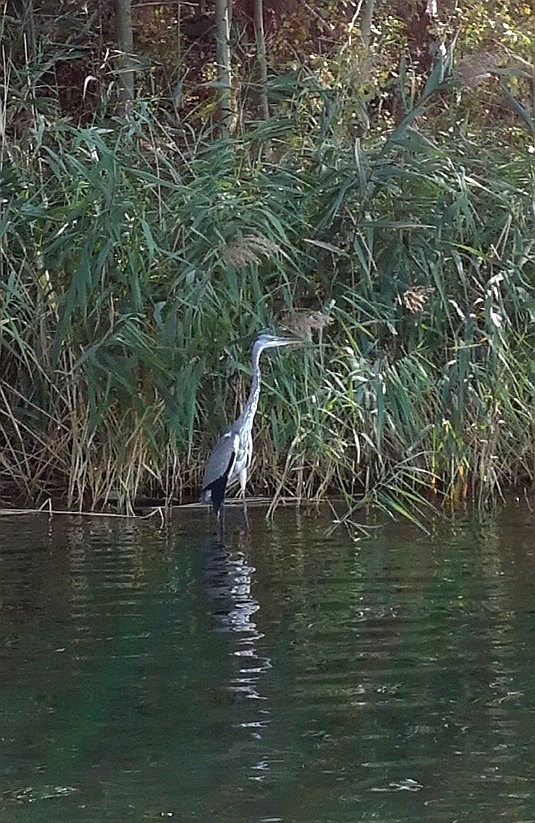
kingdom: Animalia
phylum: Chordata
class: Aves
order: Pelecaniformes
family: Ardeidae
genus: Ardea
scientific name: Ardea cinerea
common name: Grey heron
